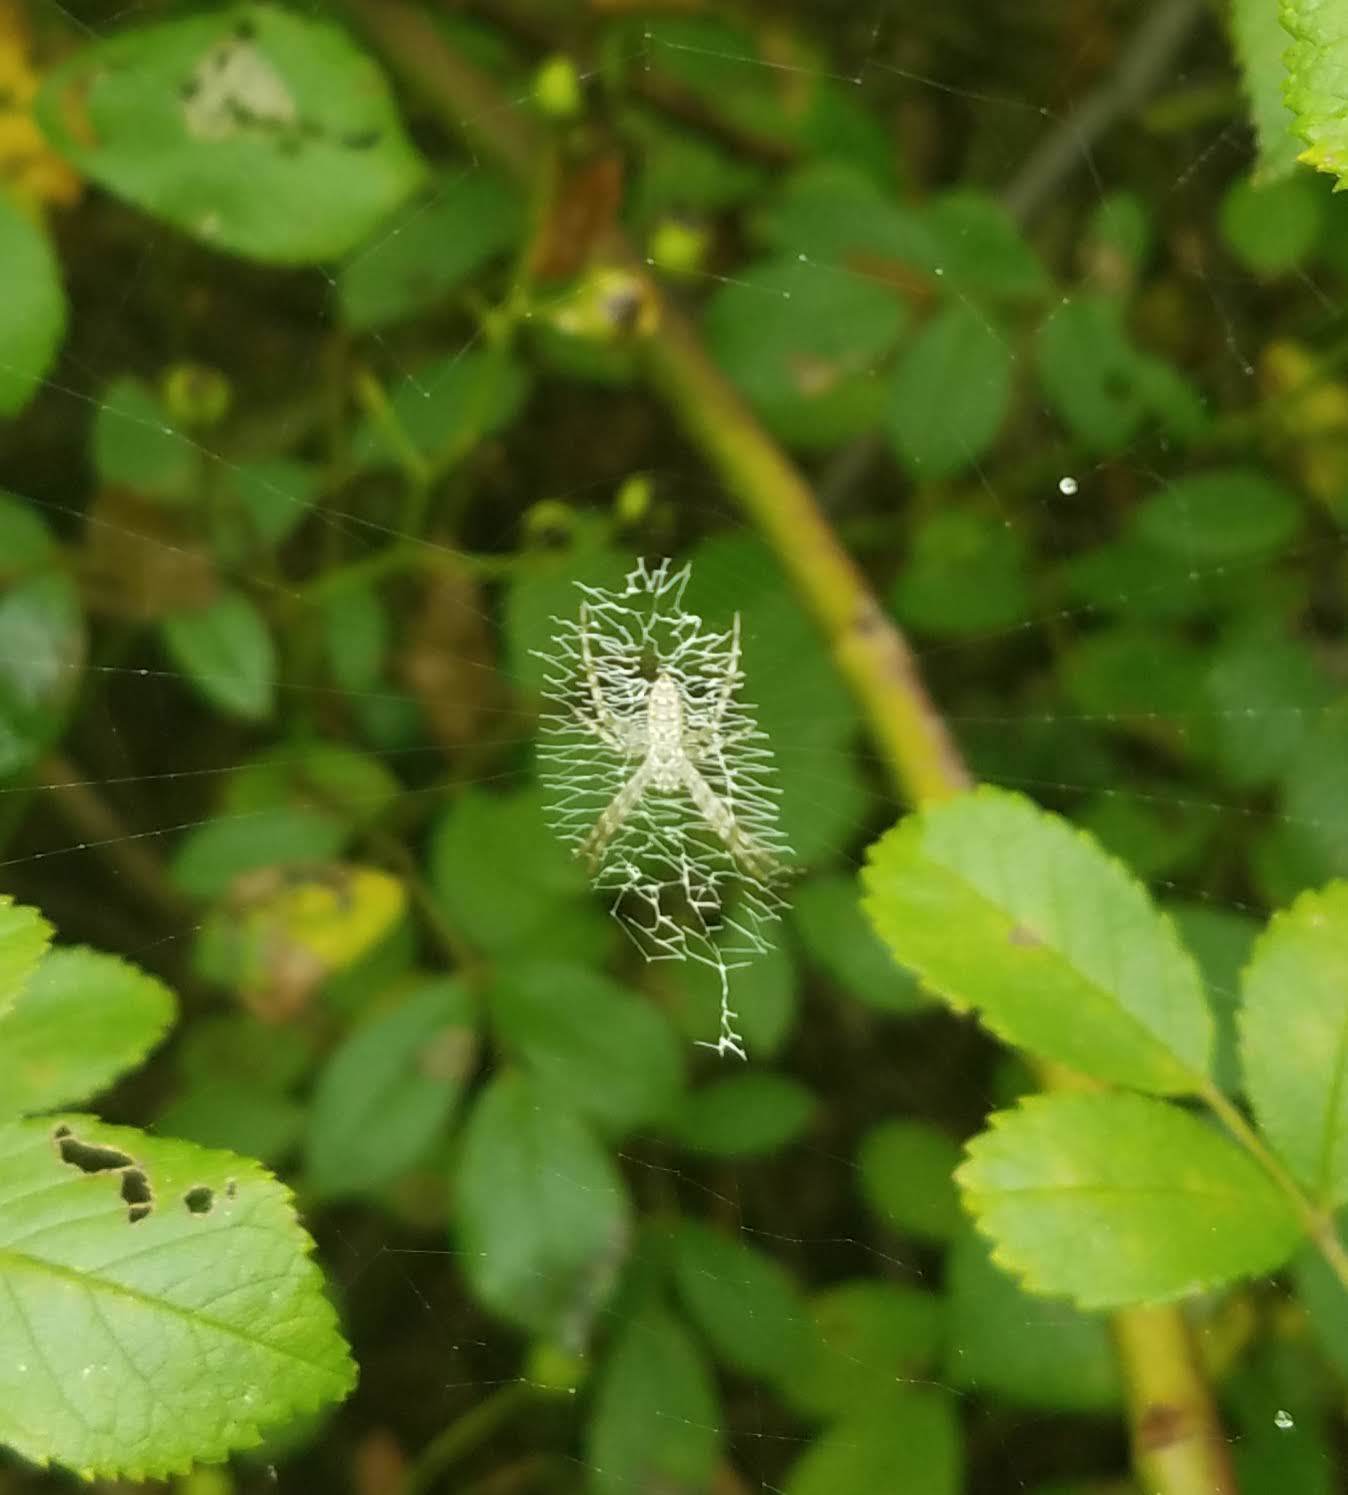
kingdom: Animalia
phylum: Arthropoda
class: Arachnida
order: Araneae
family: Araneidae
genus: Argiope
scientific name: Argiope aurantia
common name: Orb weavers
